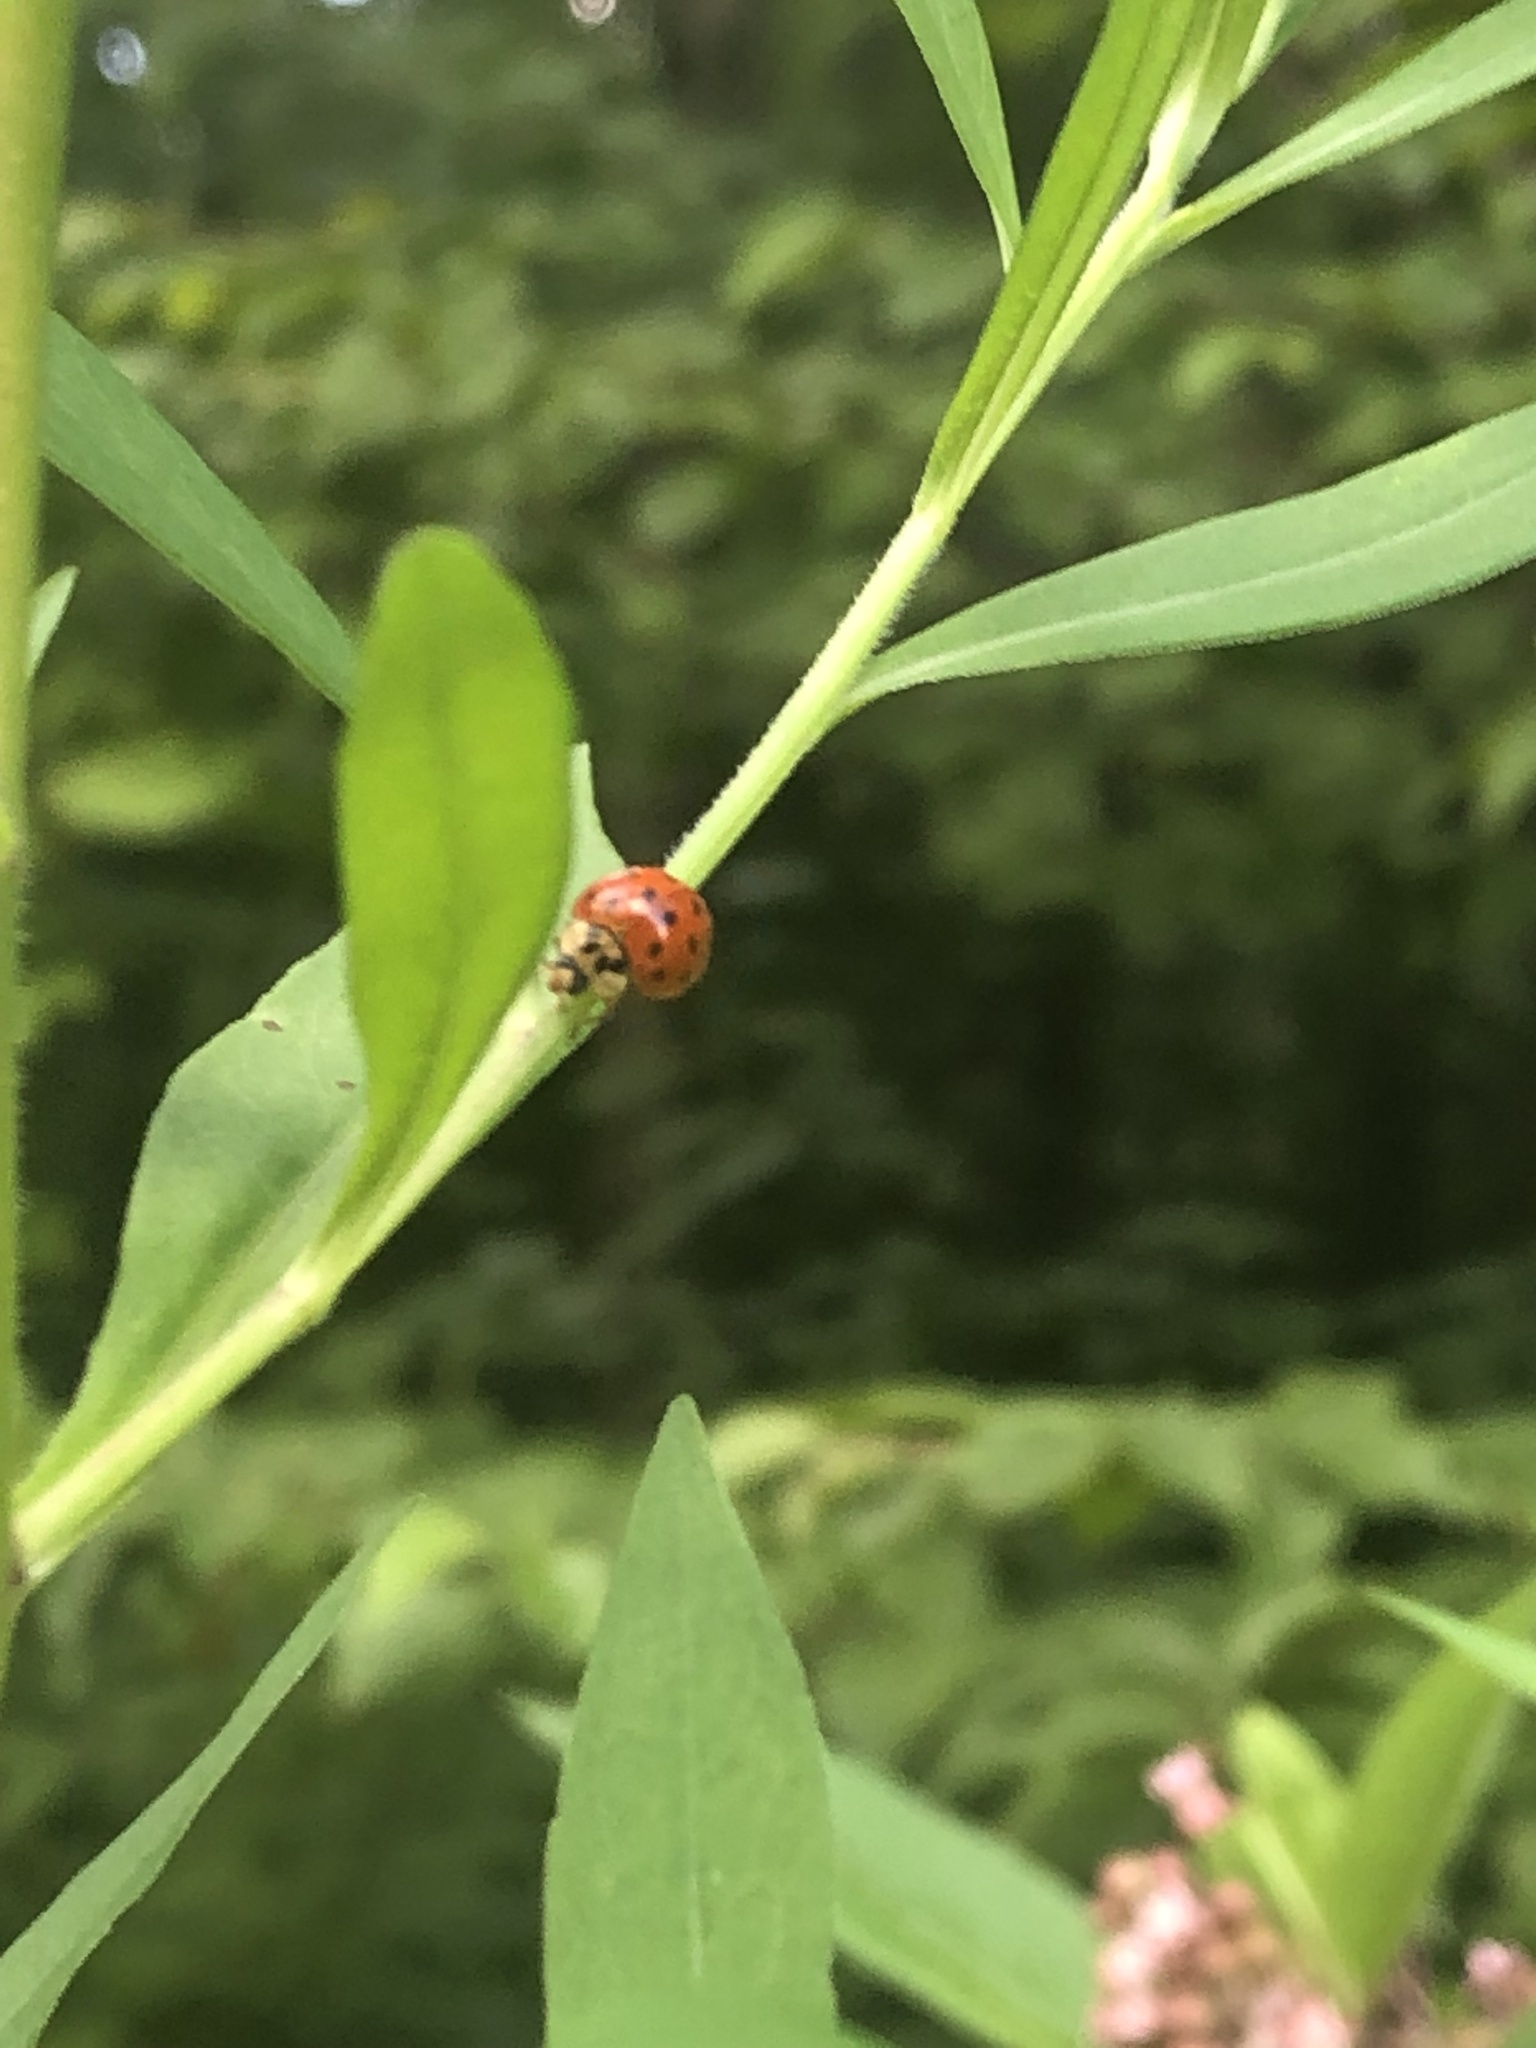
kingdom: Animalia
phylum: Arthropoda
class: Insecta
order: Coleoptera
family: Coccinellidae
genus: Harmonia
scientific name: Harmonia axyridis
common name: Harlequin ladybird
